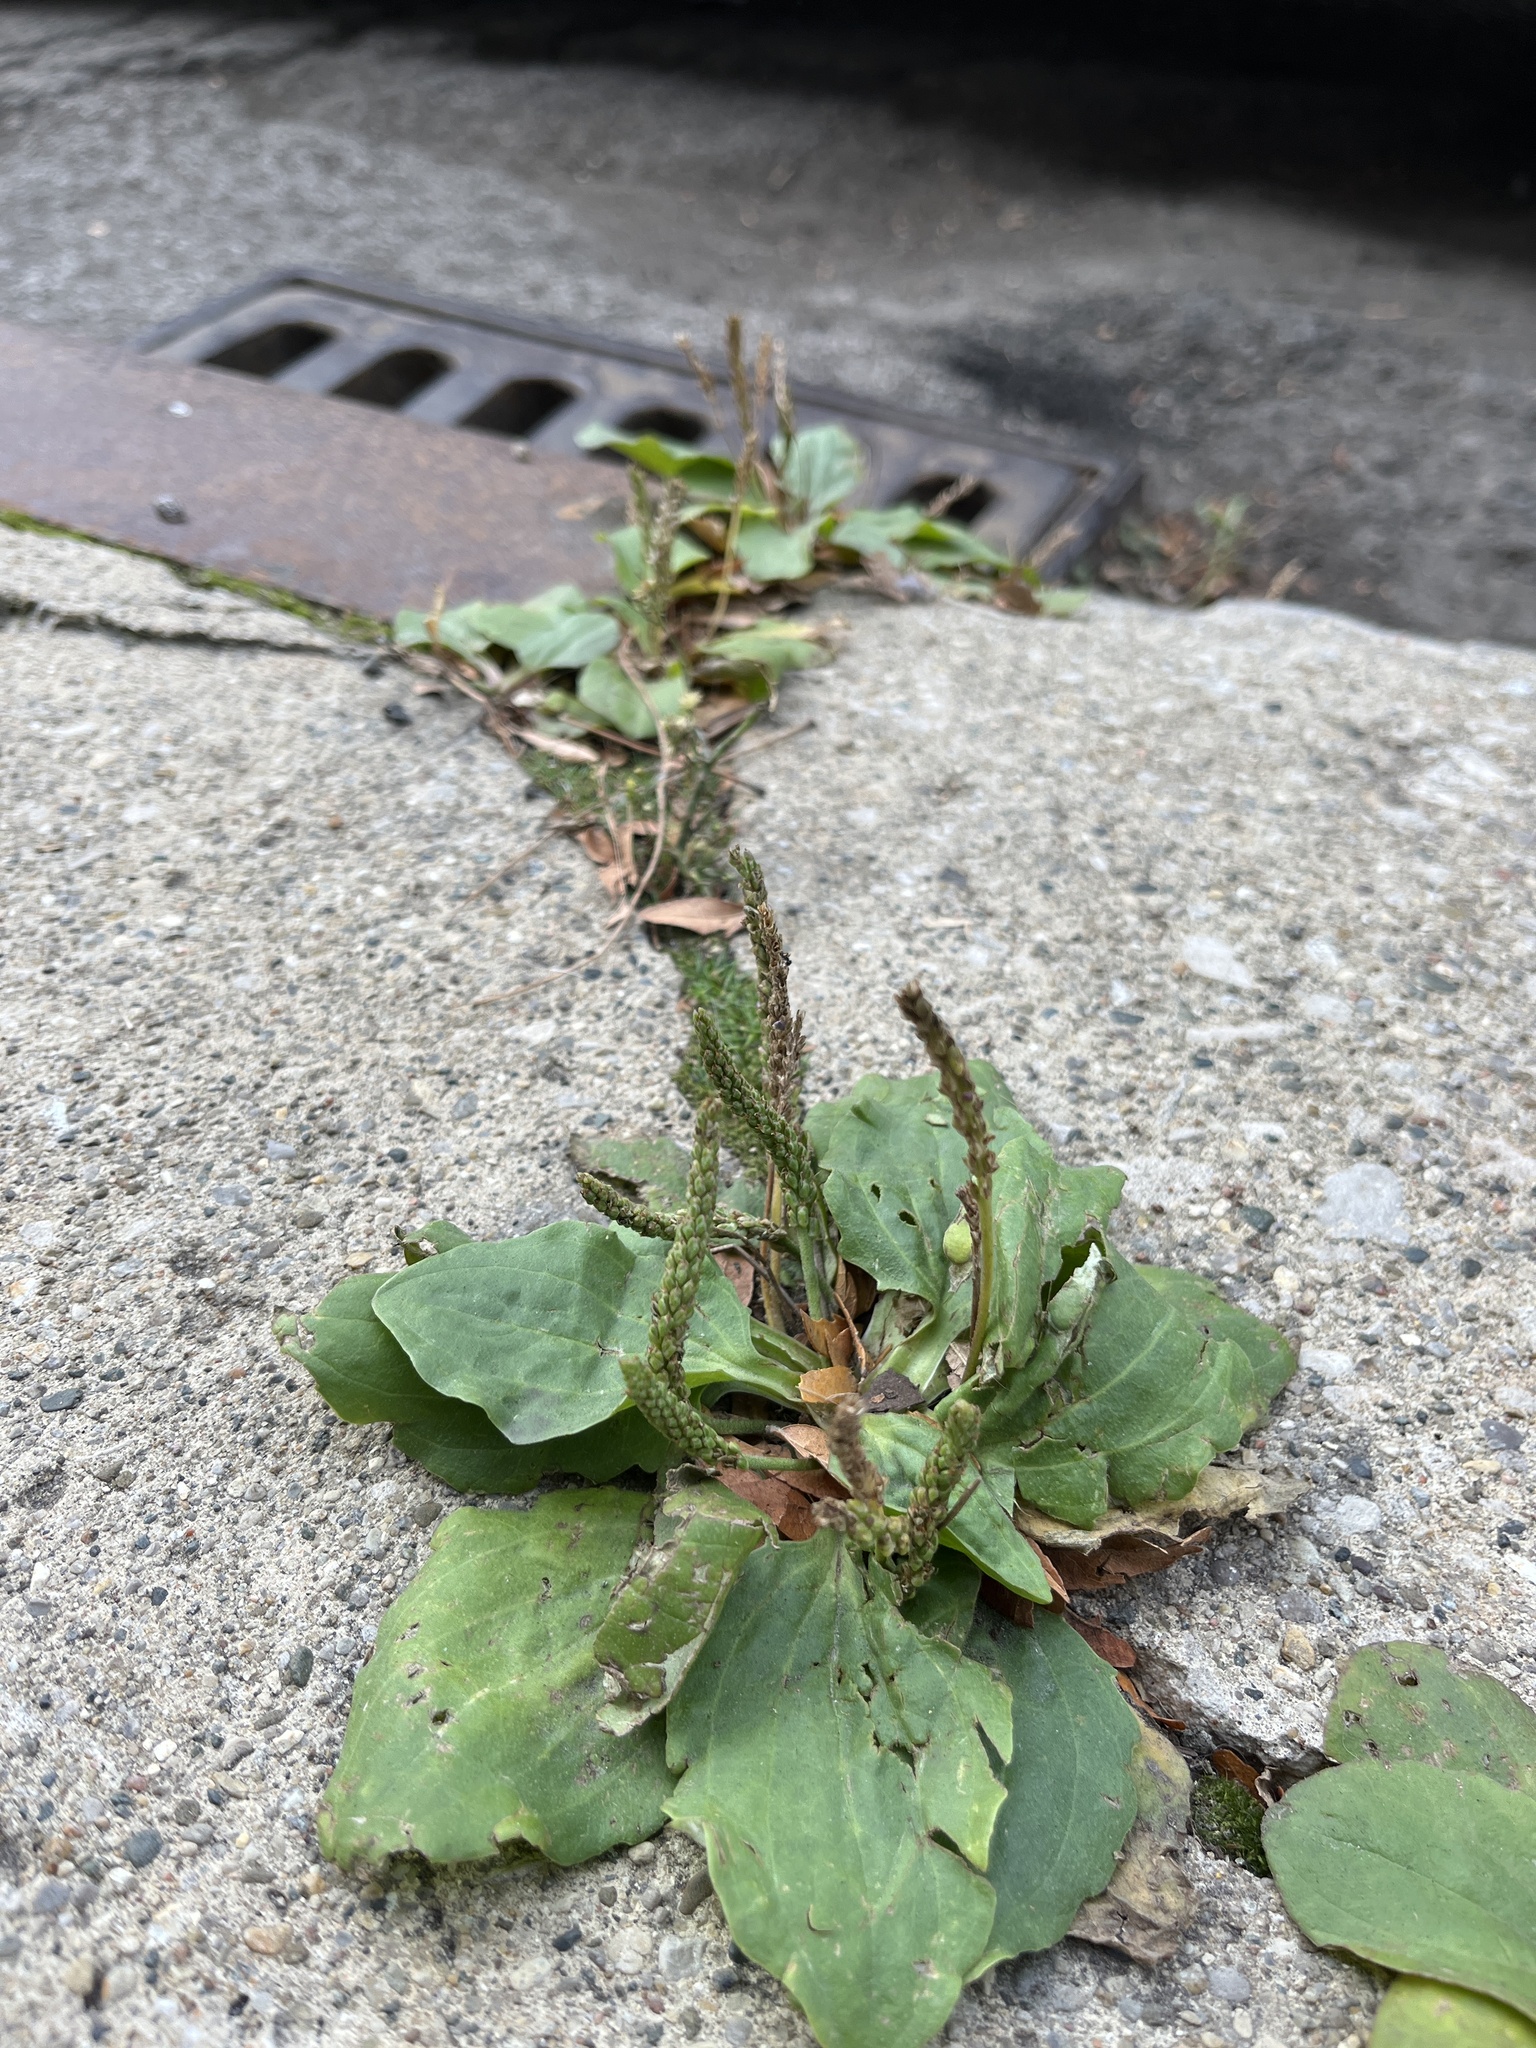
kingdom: Plantae
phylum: Tracheophyta
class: Magnoliopsida
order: Lamiales
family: Plantaginaceae
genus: Plantago
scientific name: Plantago major
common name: Common plantain
